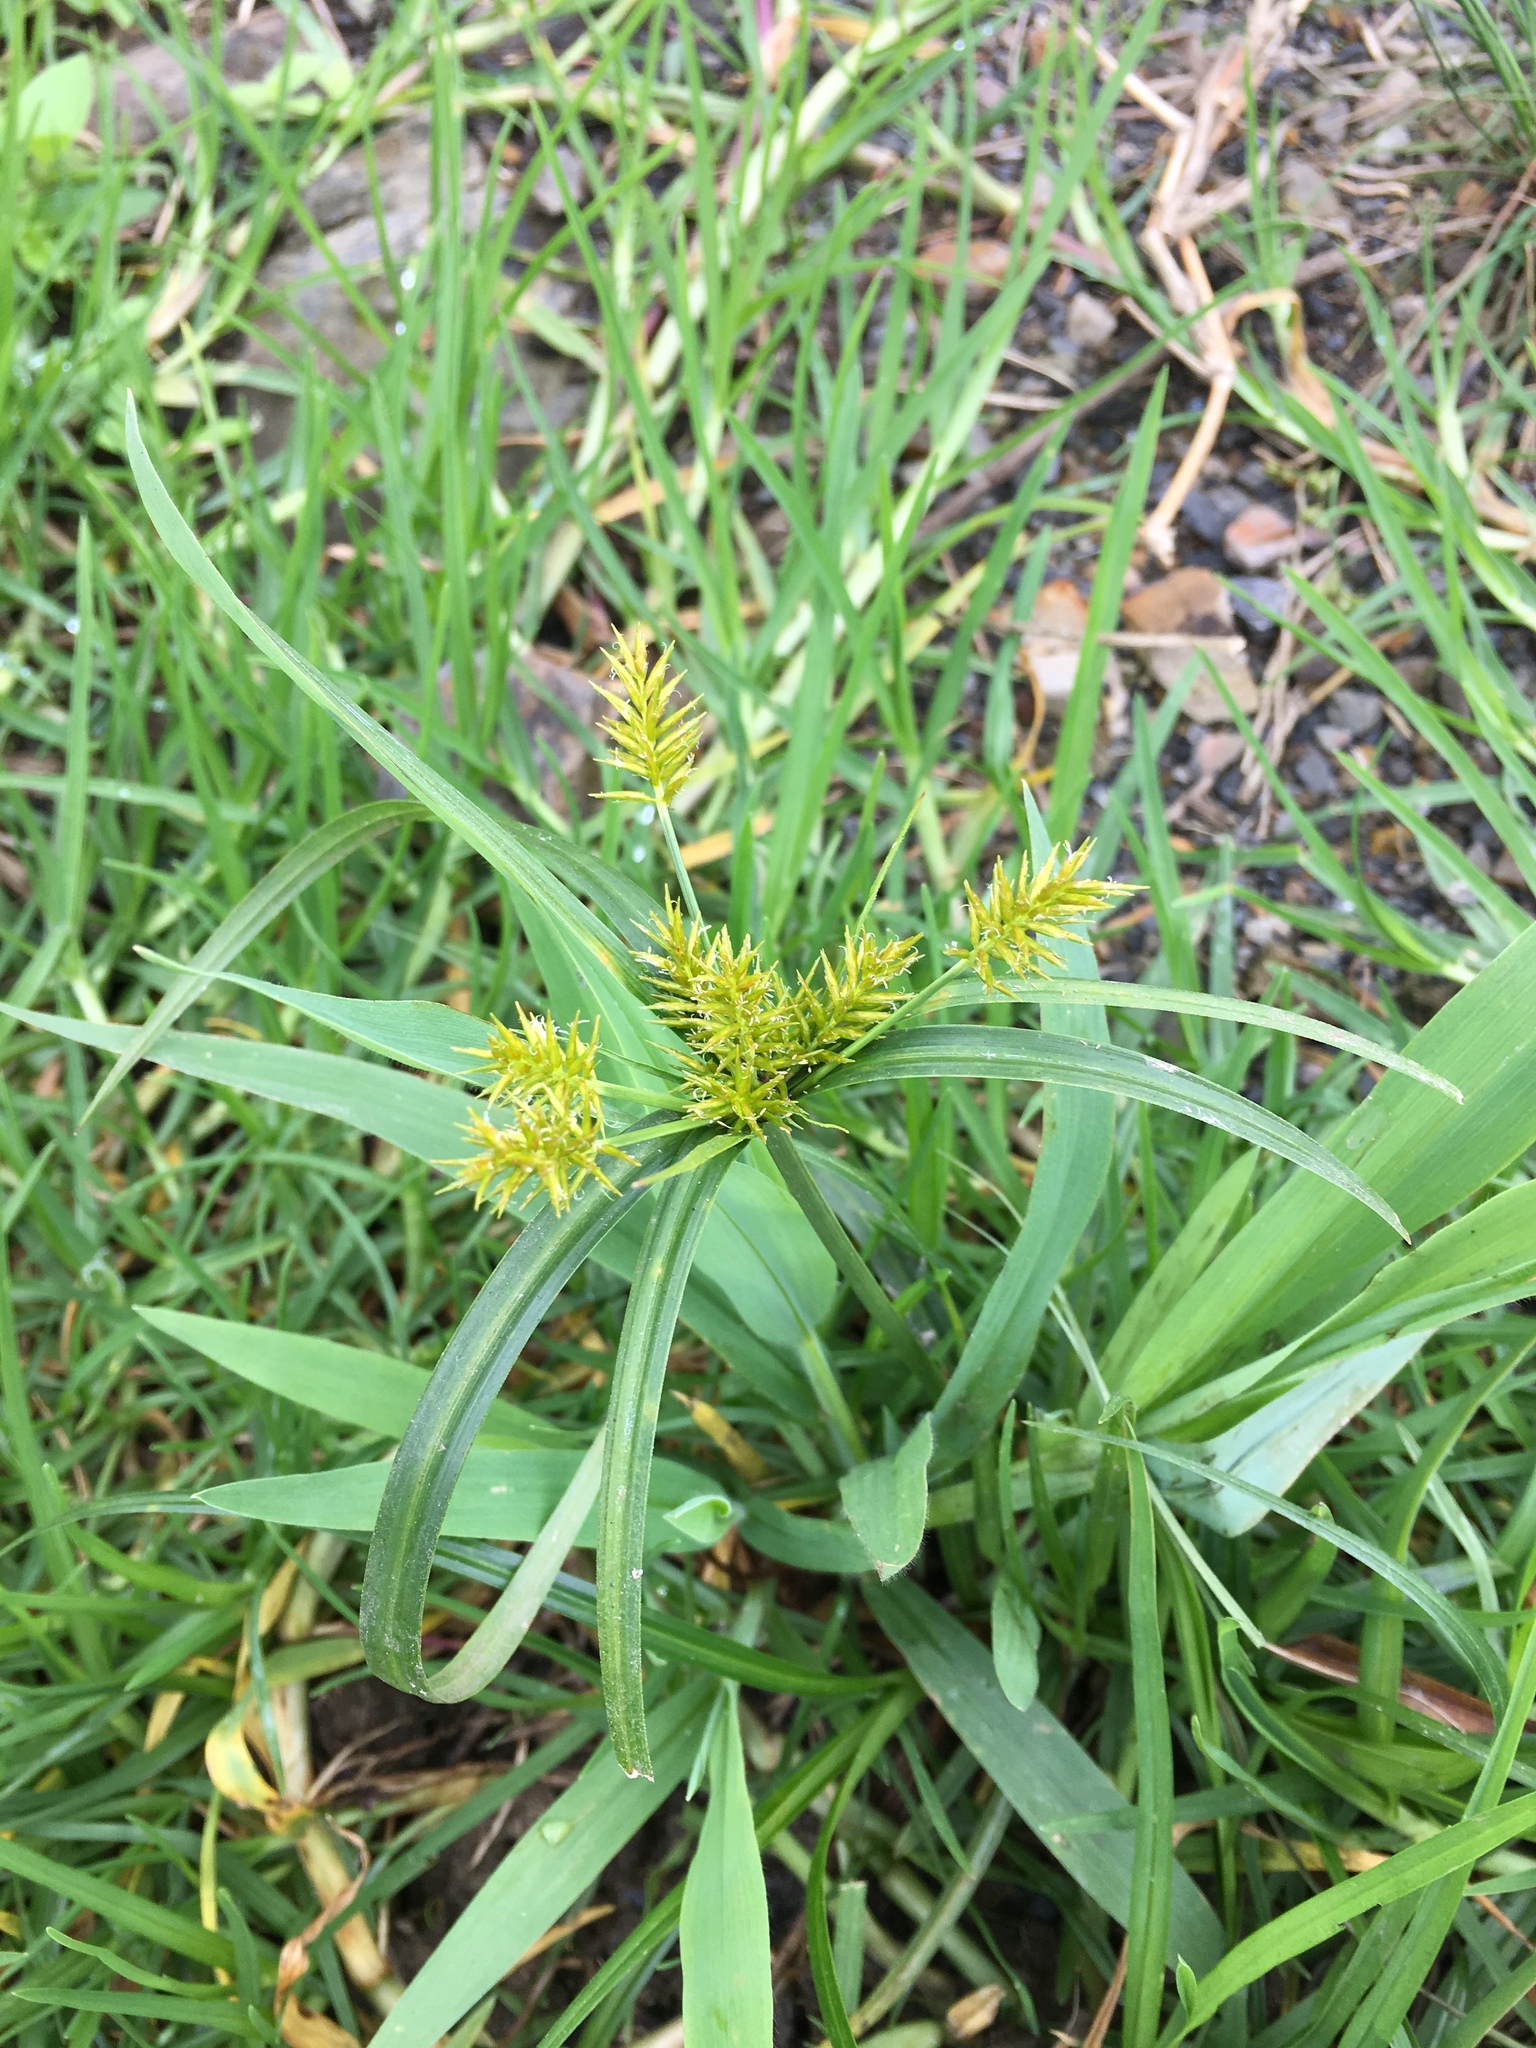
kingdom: Plantae
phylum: Tracheophyta
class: Liliopsida
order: Poales
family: Cyperaceae
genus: Cyperus
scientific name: Cyperus strigosus
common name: False nutsedge
